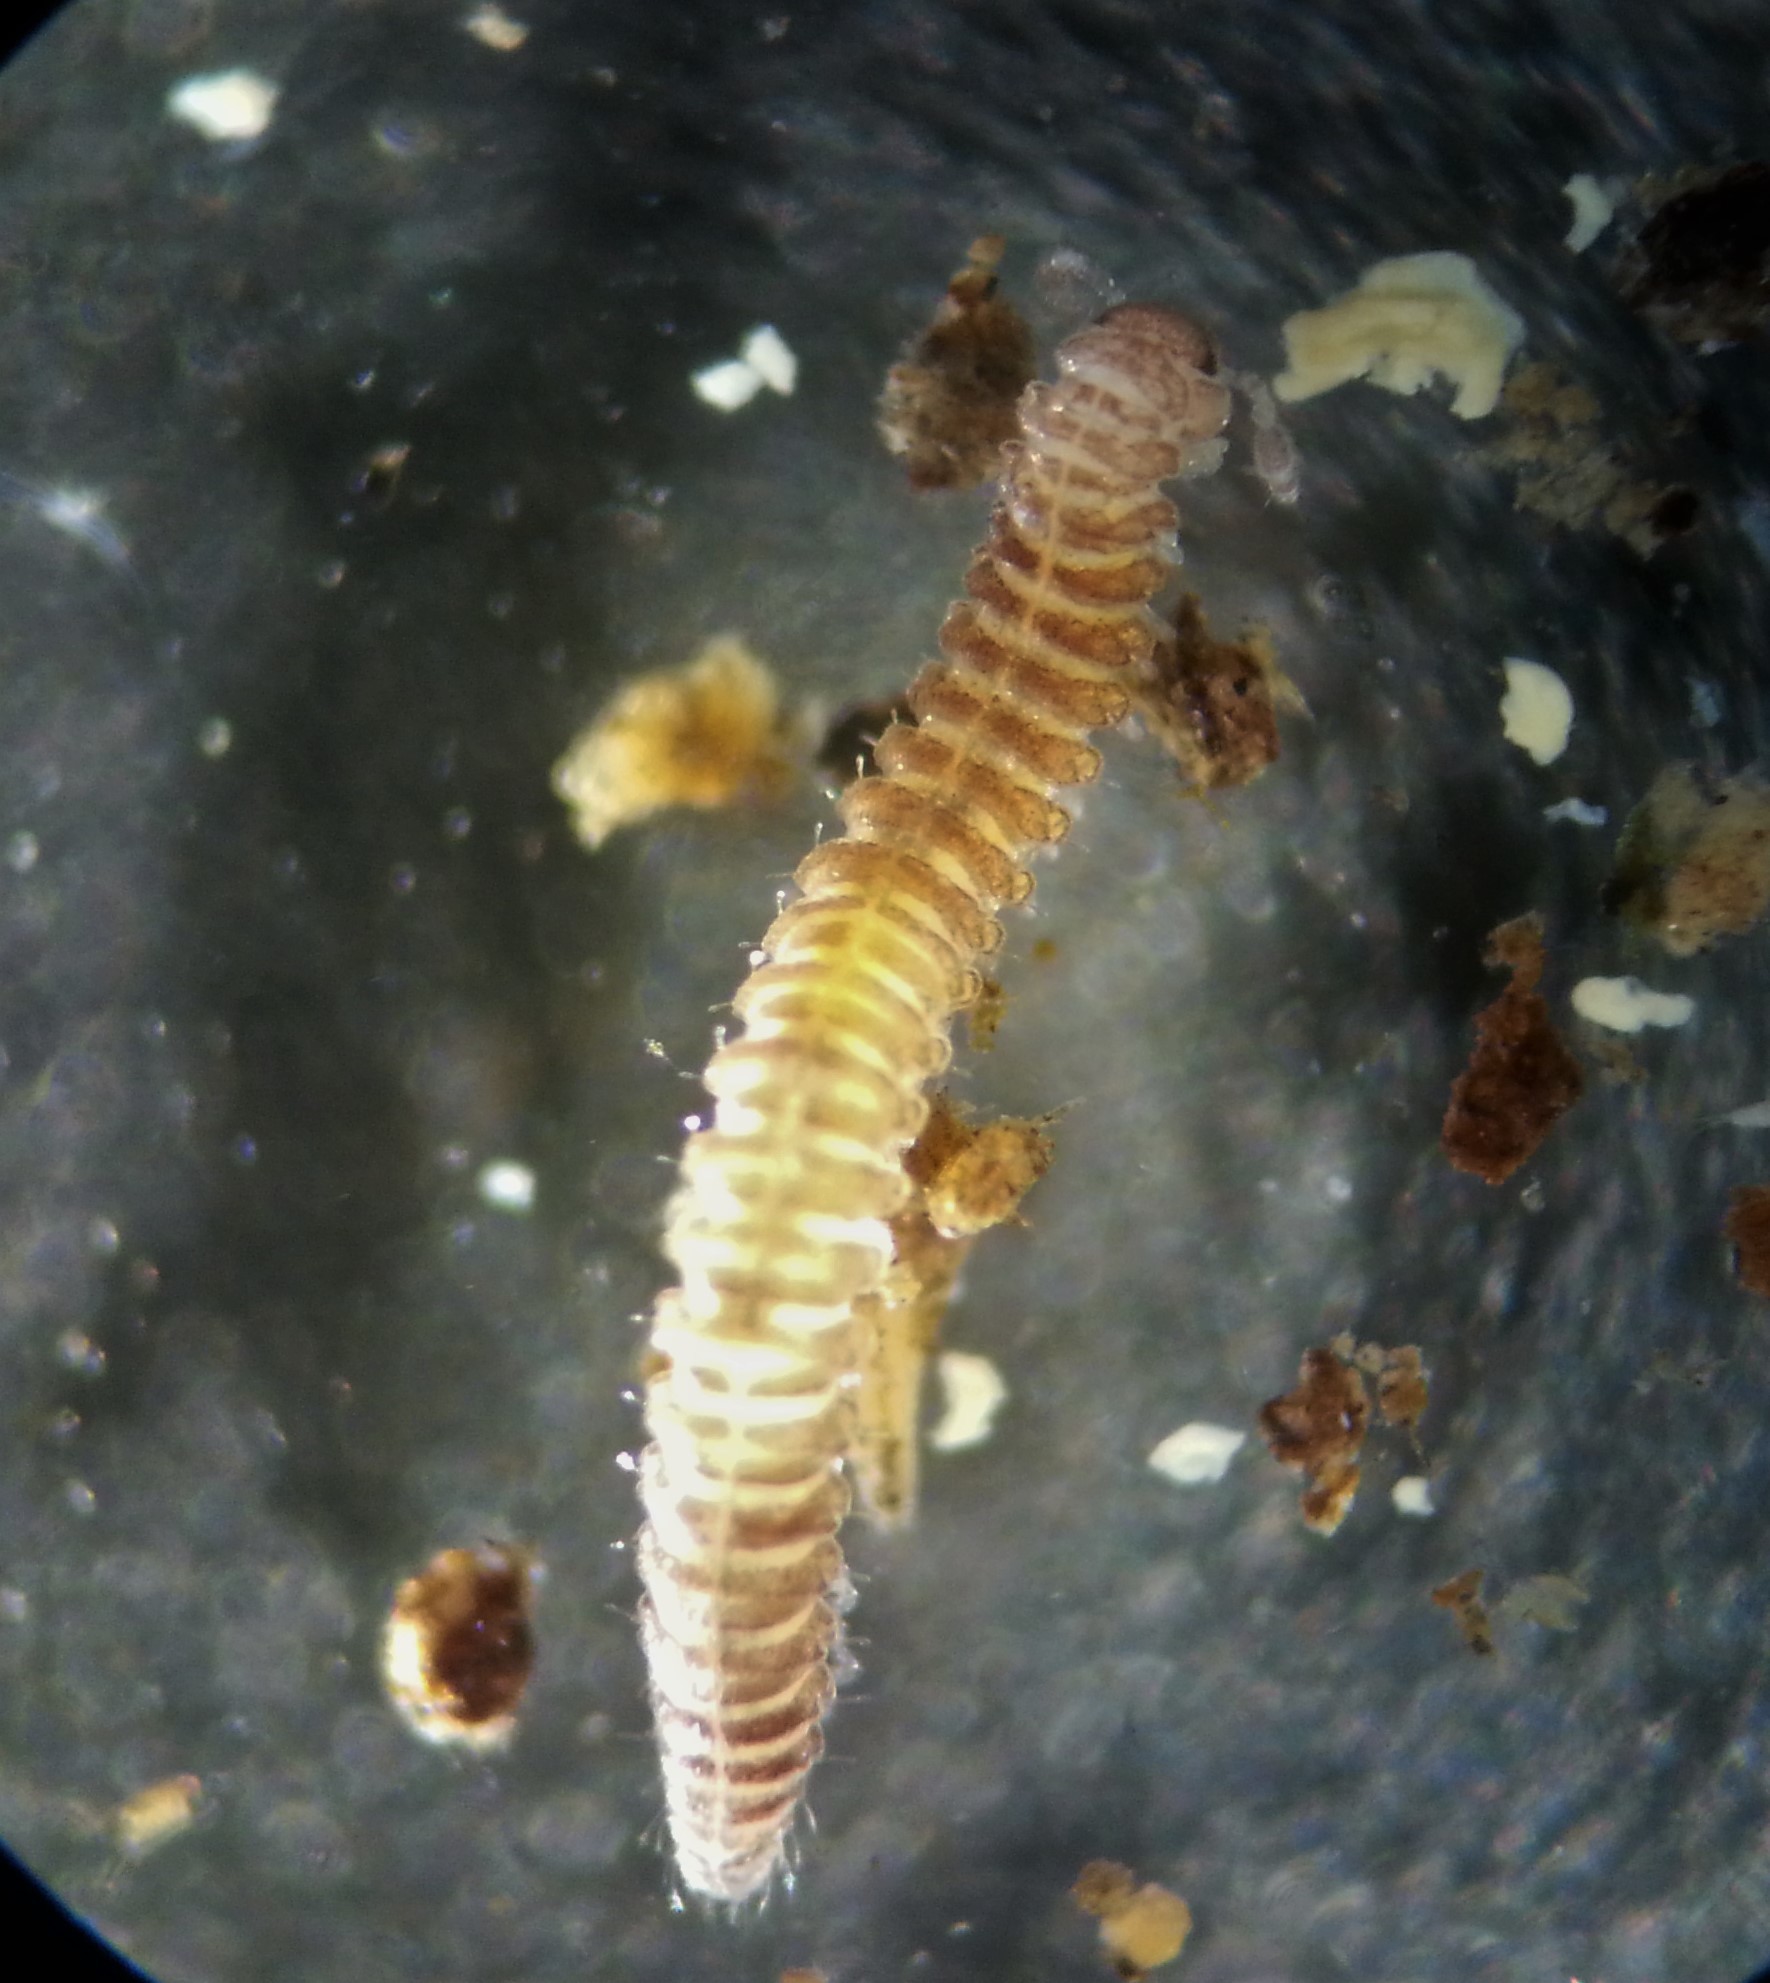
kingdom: Animalia
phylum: Arthropoda
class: Diplopoda
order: Chordeumatida
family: Branneriidae
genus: Branneria
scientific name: Branneria carinata
